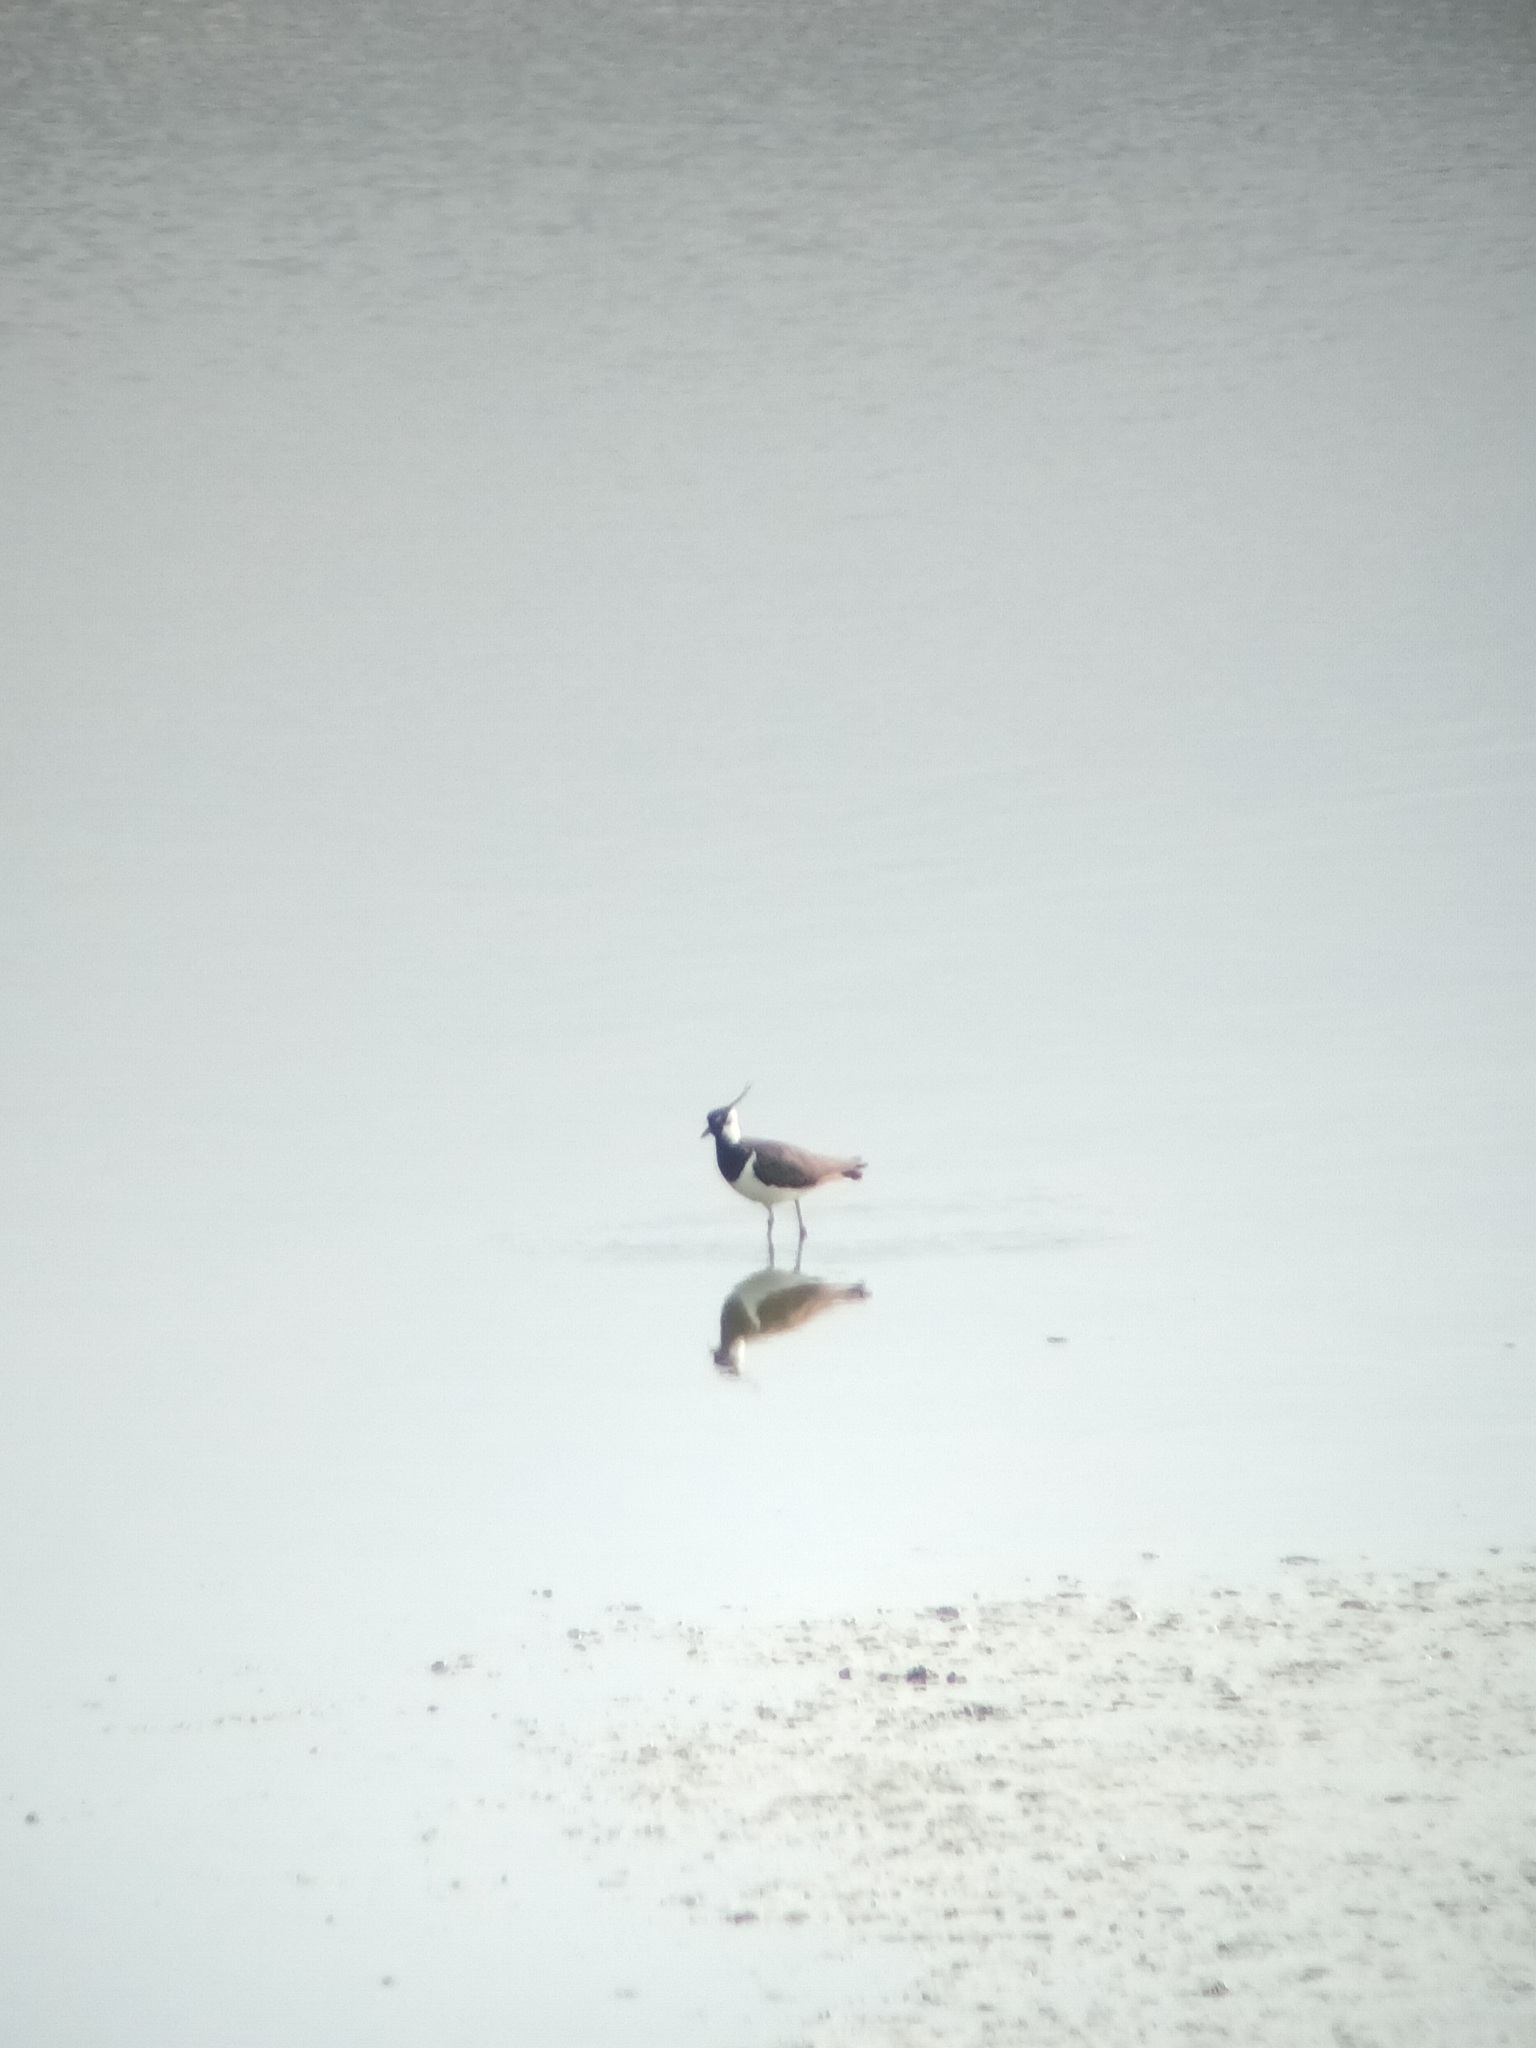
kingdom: Animalia
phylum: Chordata
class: Aves
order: Charadriiformes
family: Charadriidae
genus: Vanellus
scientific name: Vanellus vanellus
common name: Northern lapwing
